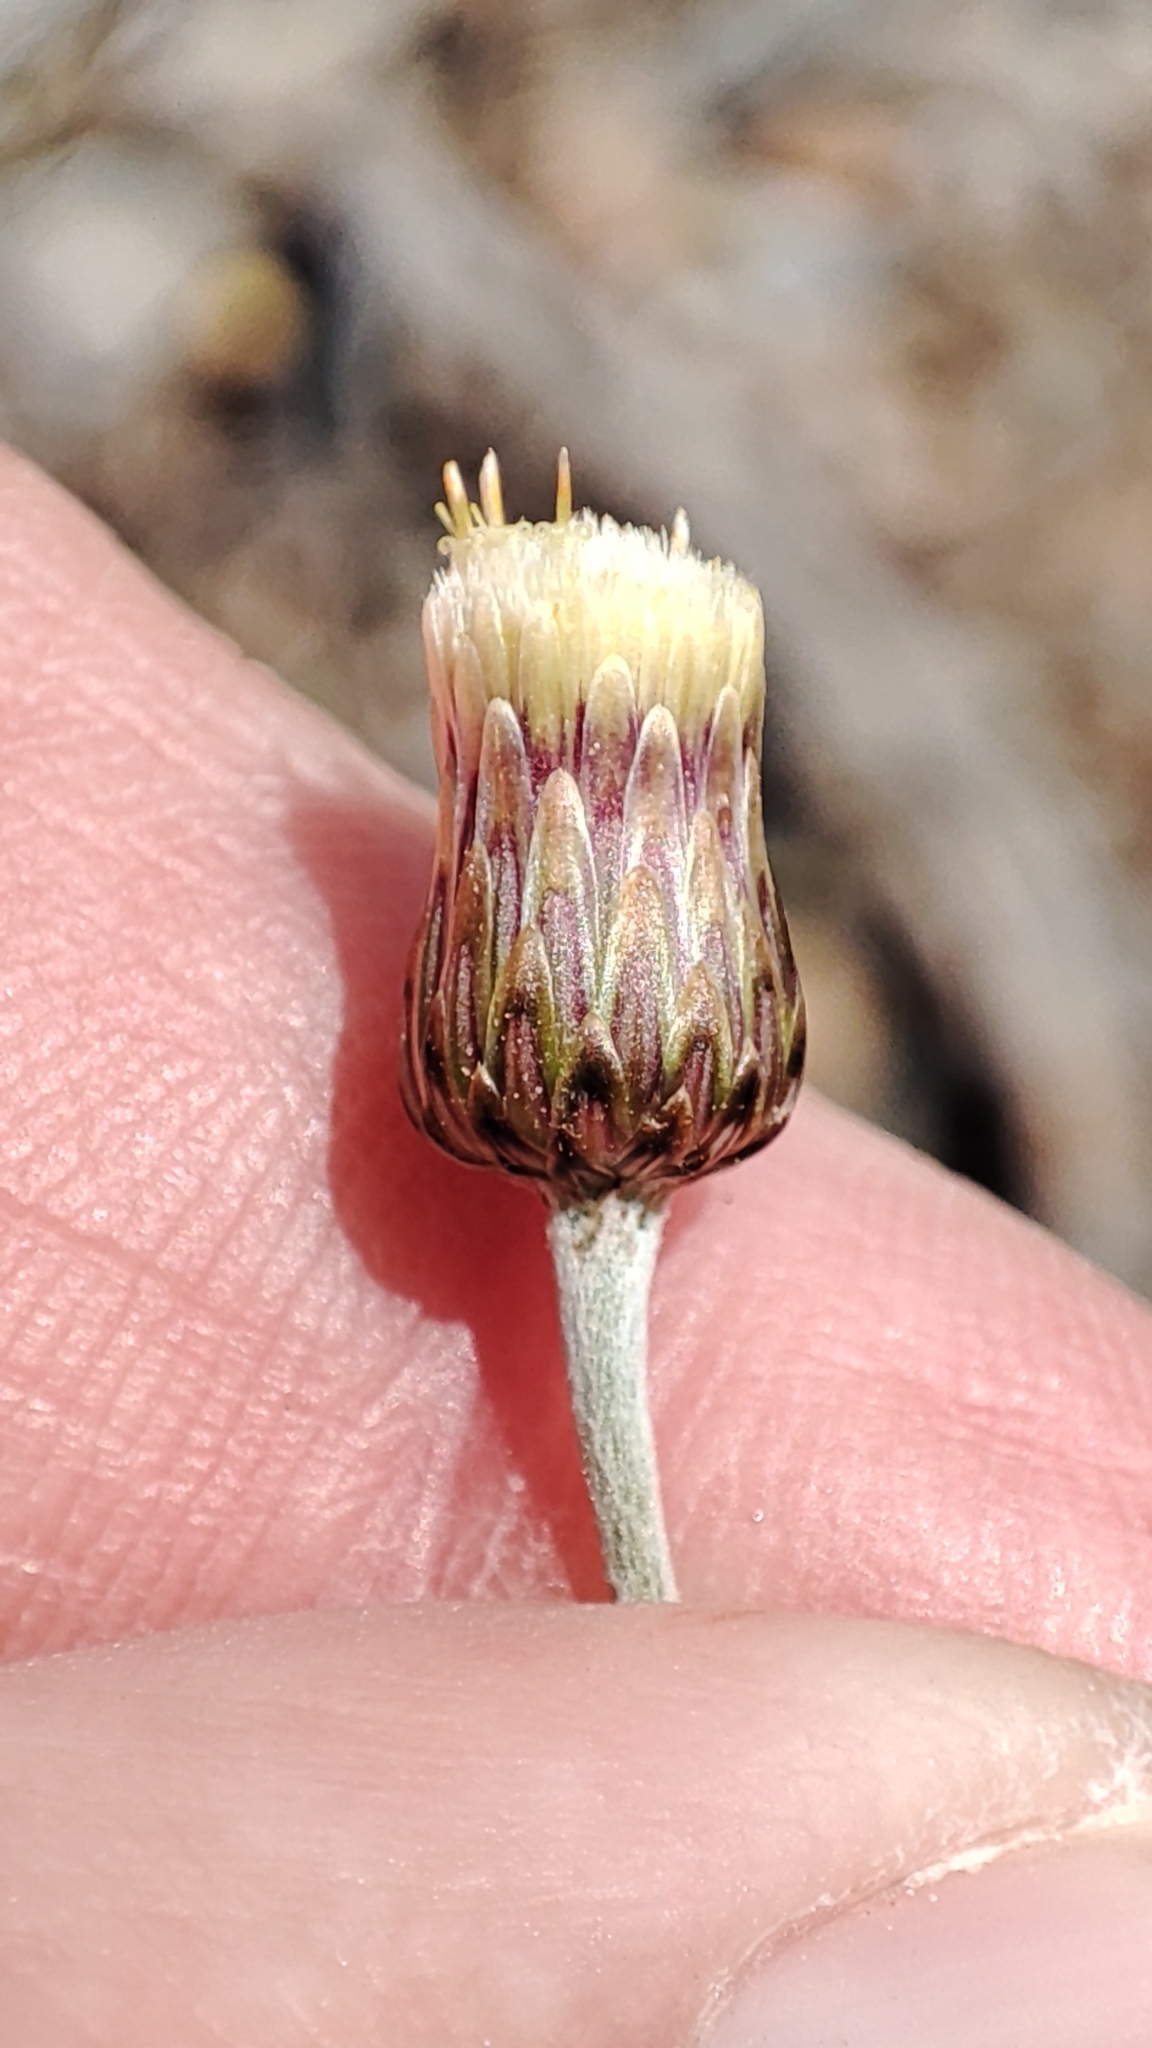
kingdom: Plantae
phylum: Tracheophyta
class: Magnoliopsida
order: Asterales
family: Asteraceae
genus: Phagnalon
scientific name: Phagnalon rupestre
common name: Rock phagnalon
